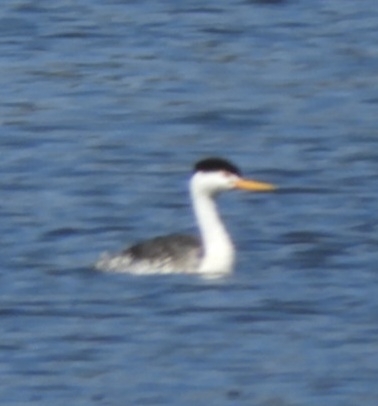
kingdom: Animalia
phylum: Chordata
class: Aves
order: Podicipediformes
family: Podicipedidae
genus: Aechmophorus
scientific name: Aechmophorus clarkii
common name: Clark's grebe
